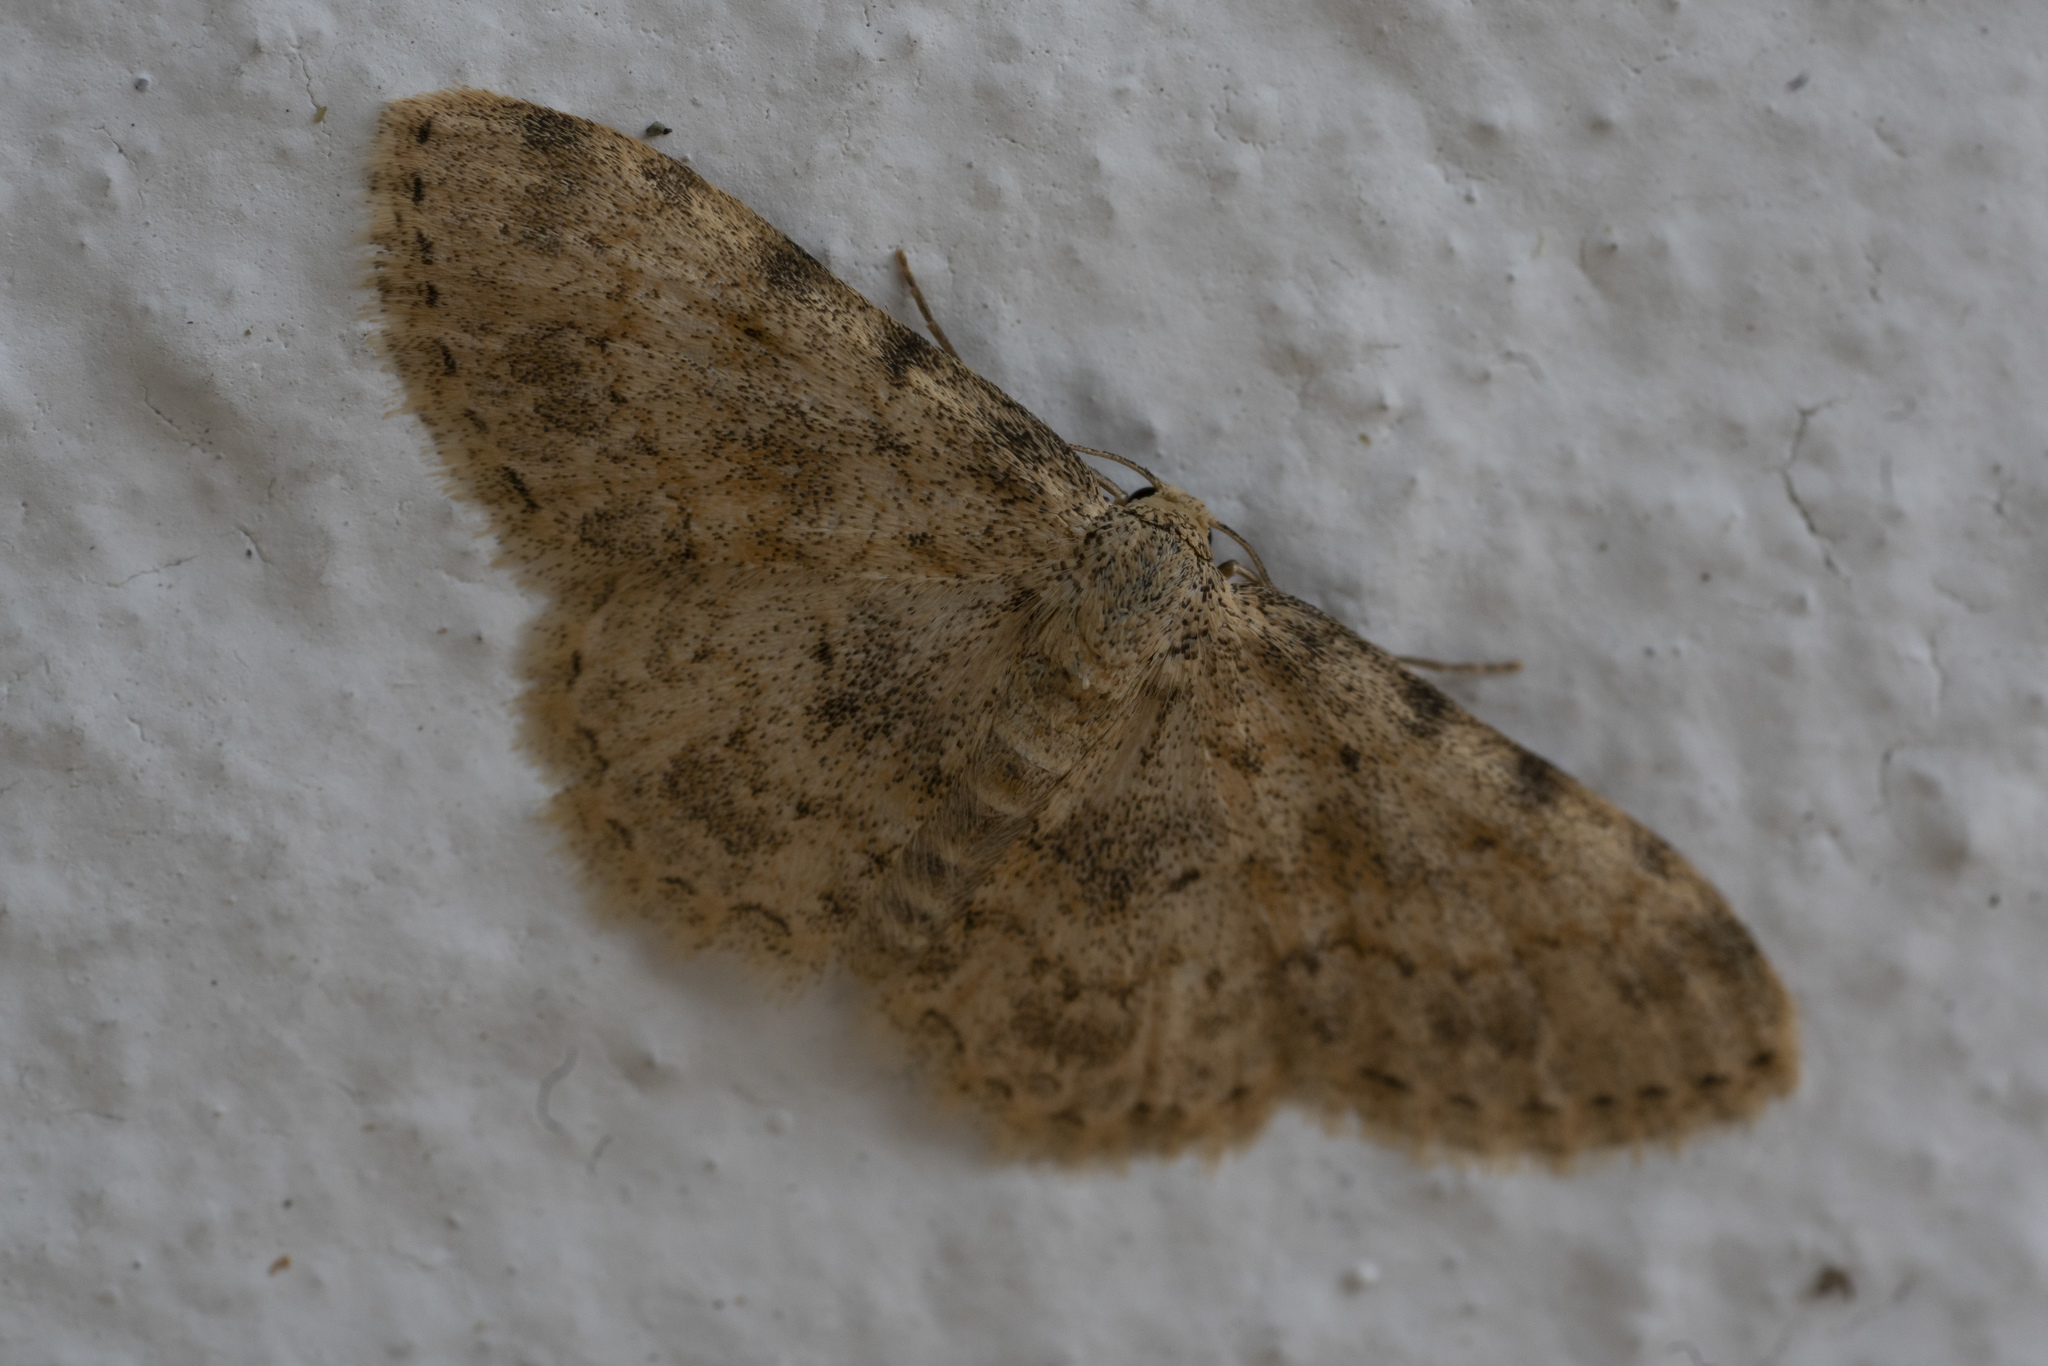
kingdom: Animalia
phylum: Arthropoda
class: Insecta
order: Lepidoptera
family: Geometridae
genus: Scopula
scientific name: Scopula luridata
